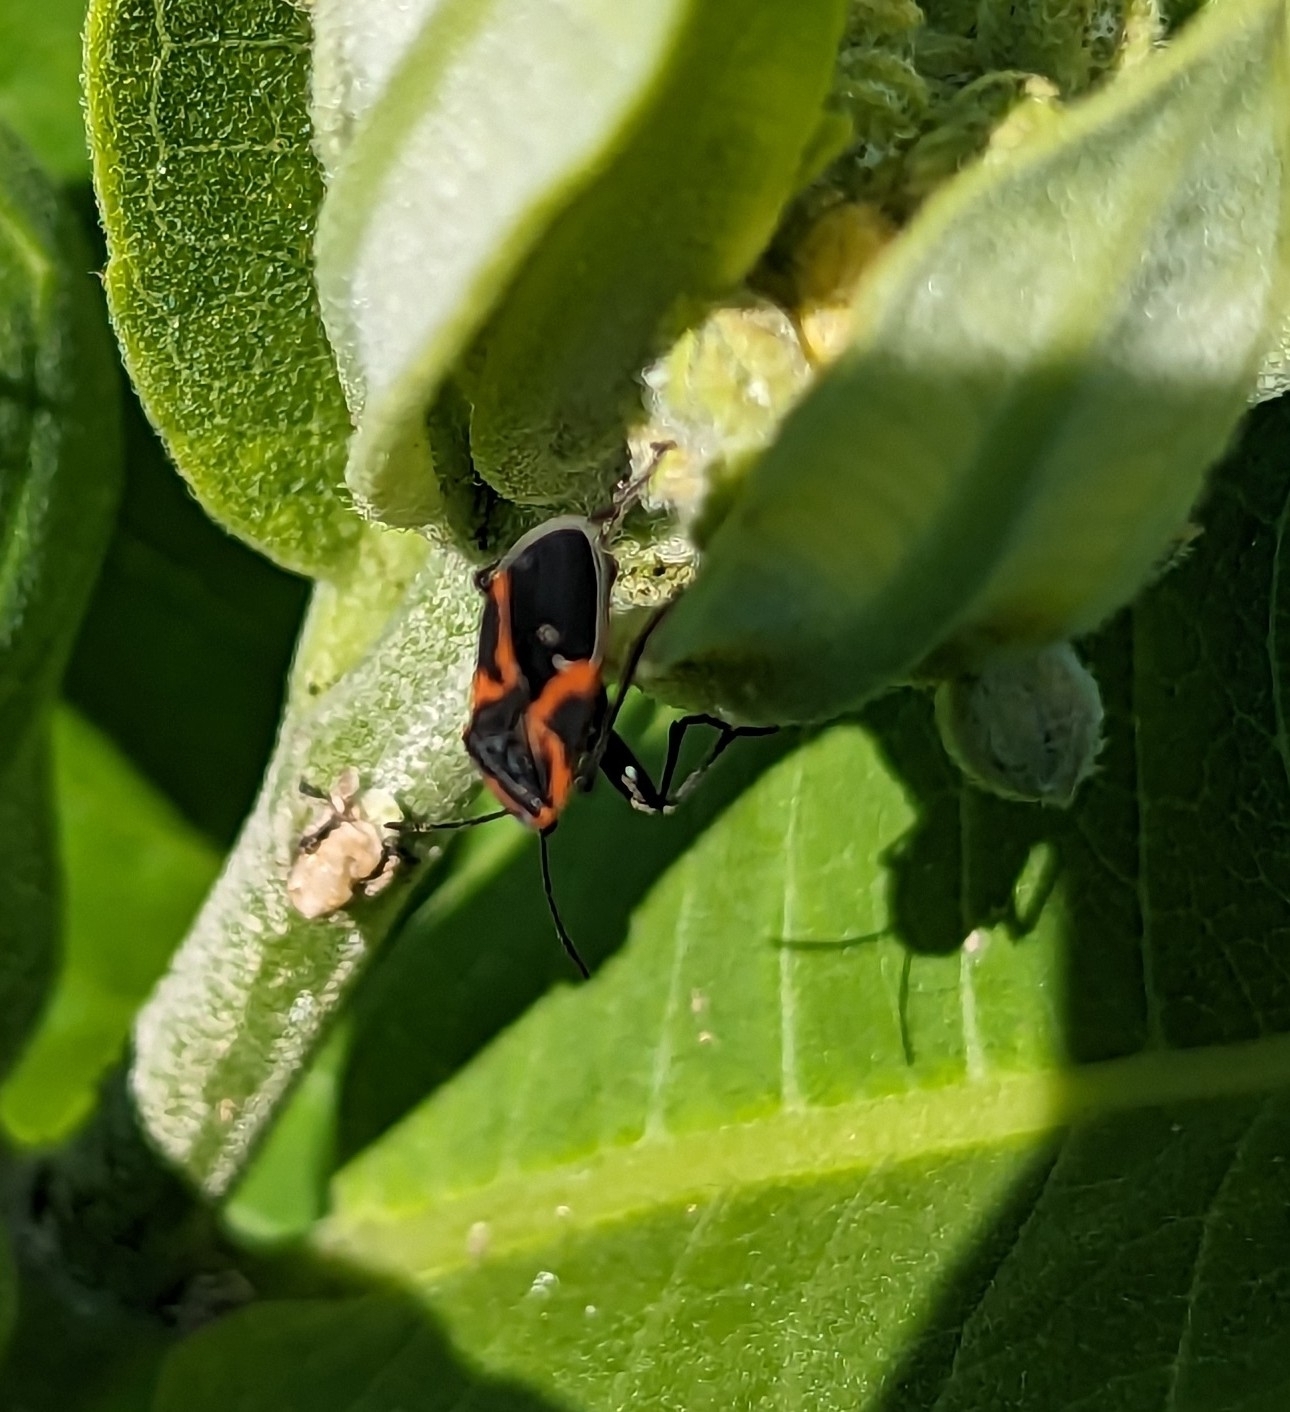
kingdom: Animalia
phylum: Arthropoda
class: Insecta
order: Hemiptera
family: Lygaeidae
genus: Lygaeus
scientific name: Lygaeus kalmii
